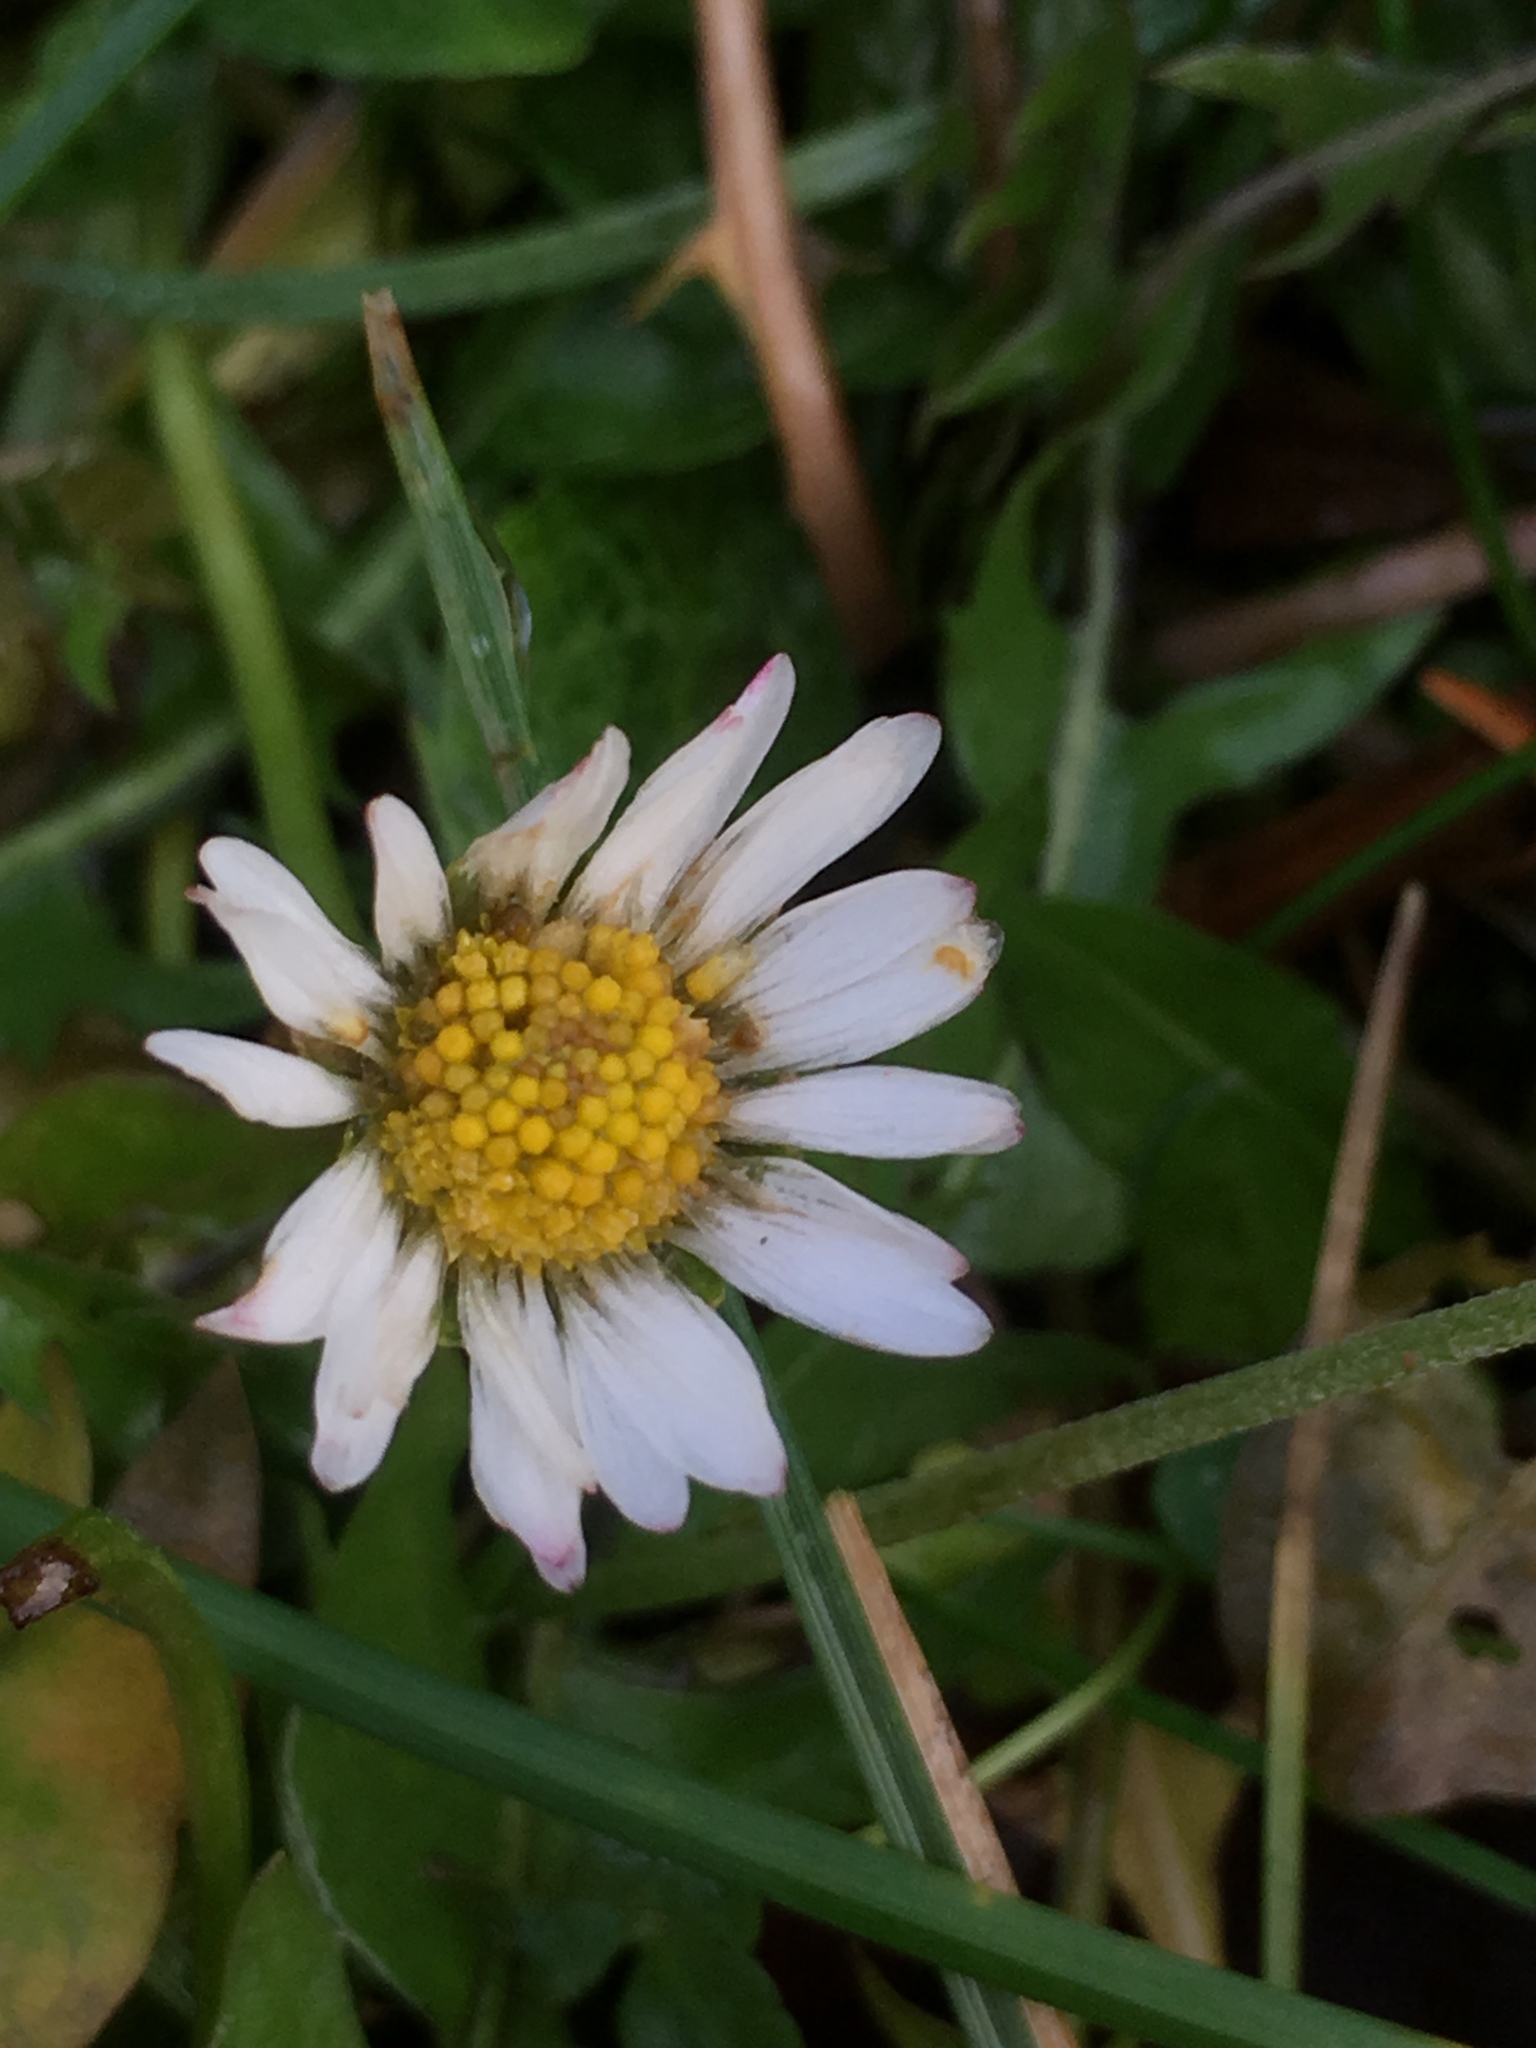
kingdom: Plantae
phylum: Tracheophyta
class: Magnoliopsida
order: Asterales
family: Asteraceae
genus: Bellis
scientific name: Bellis perennis
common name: Lawndaisy
